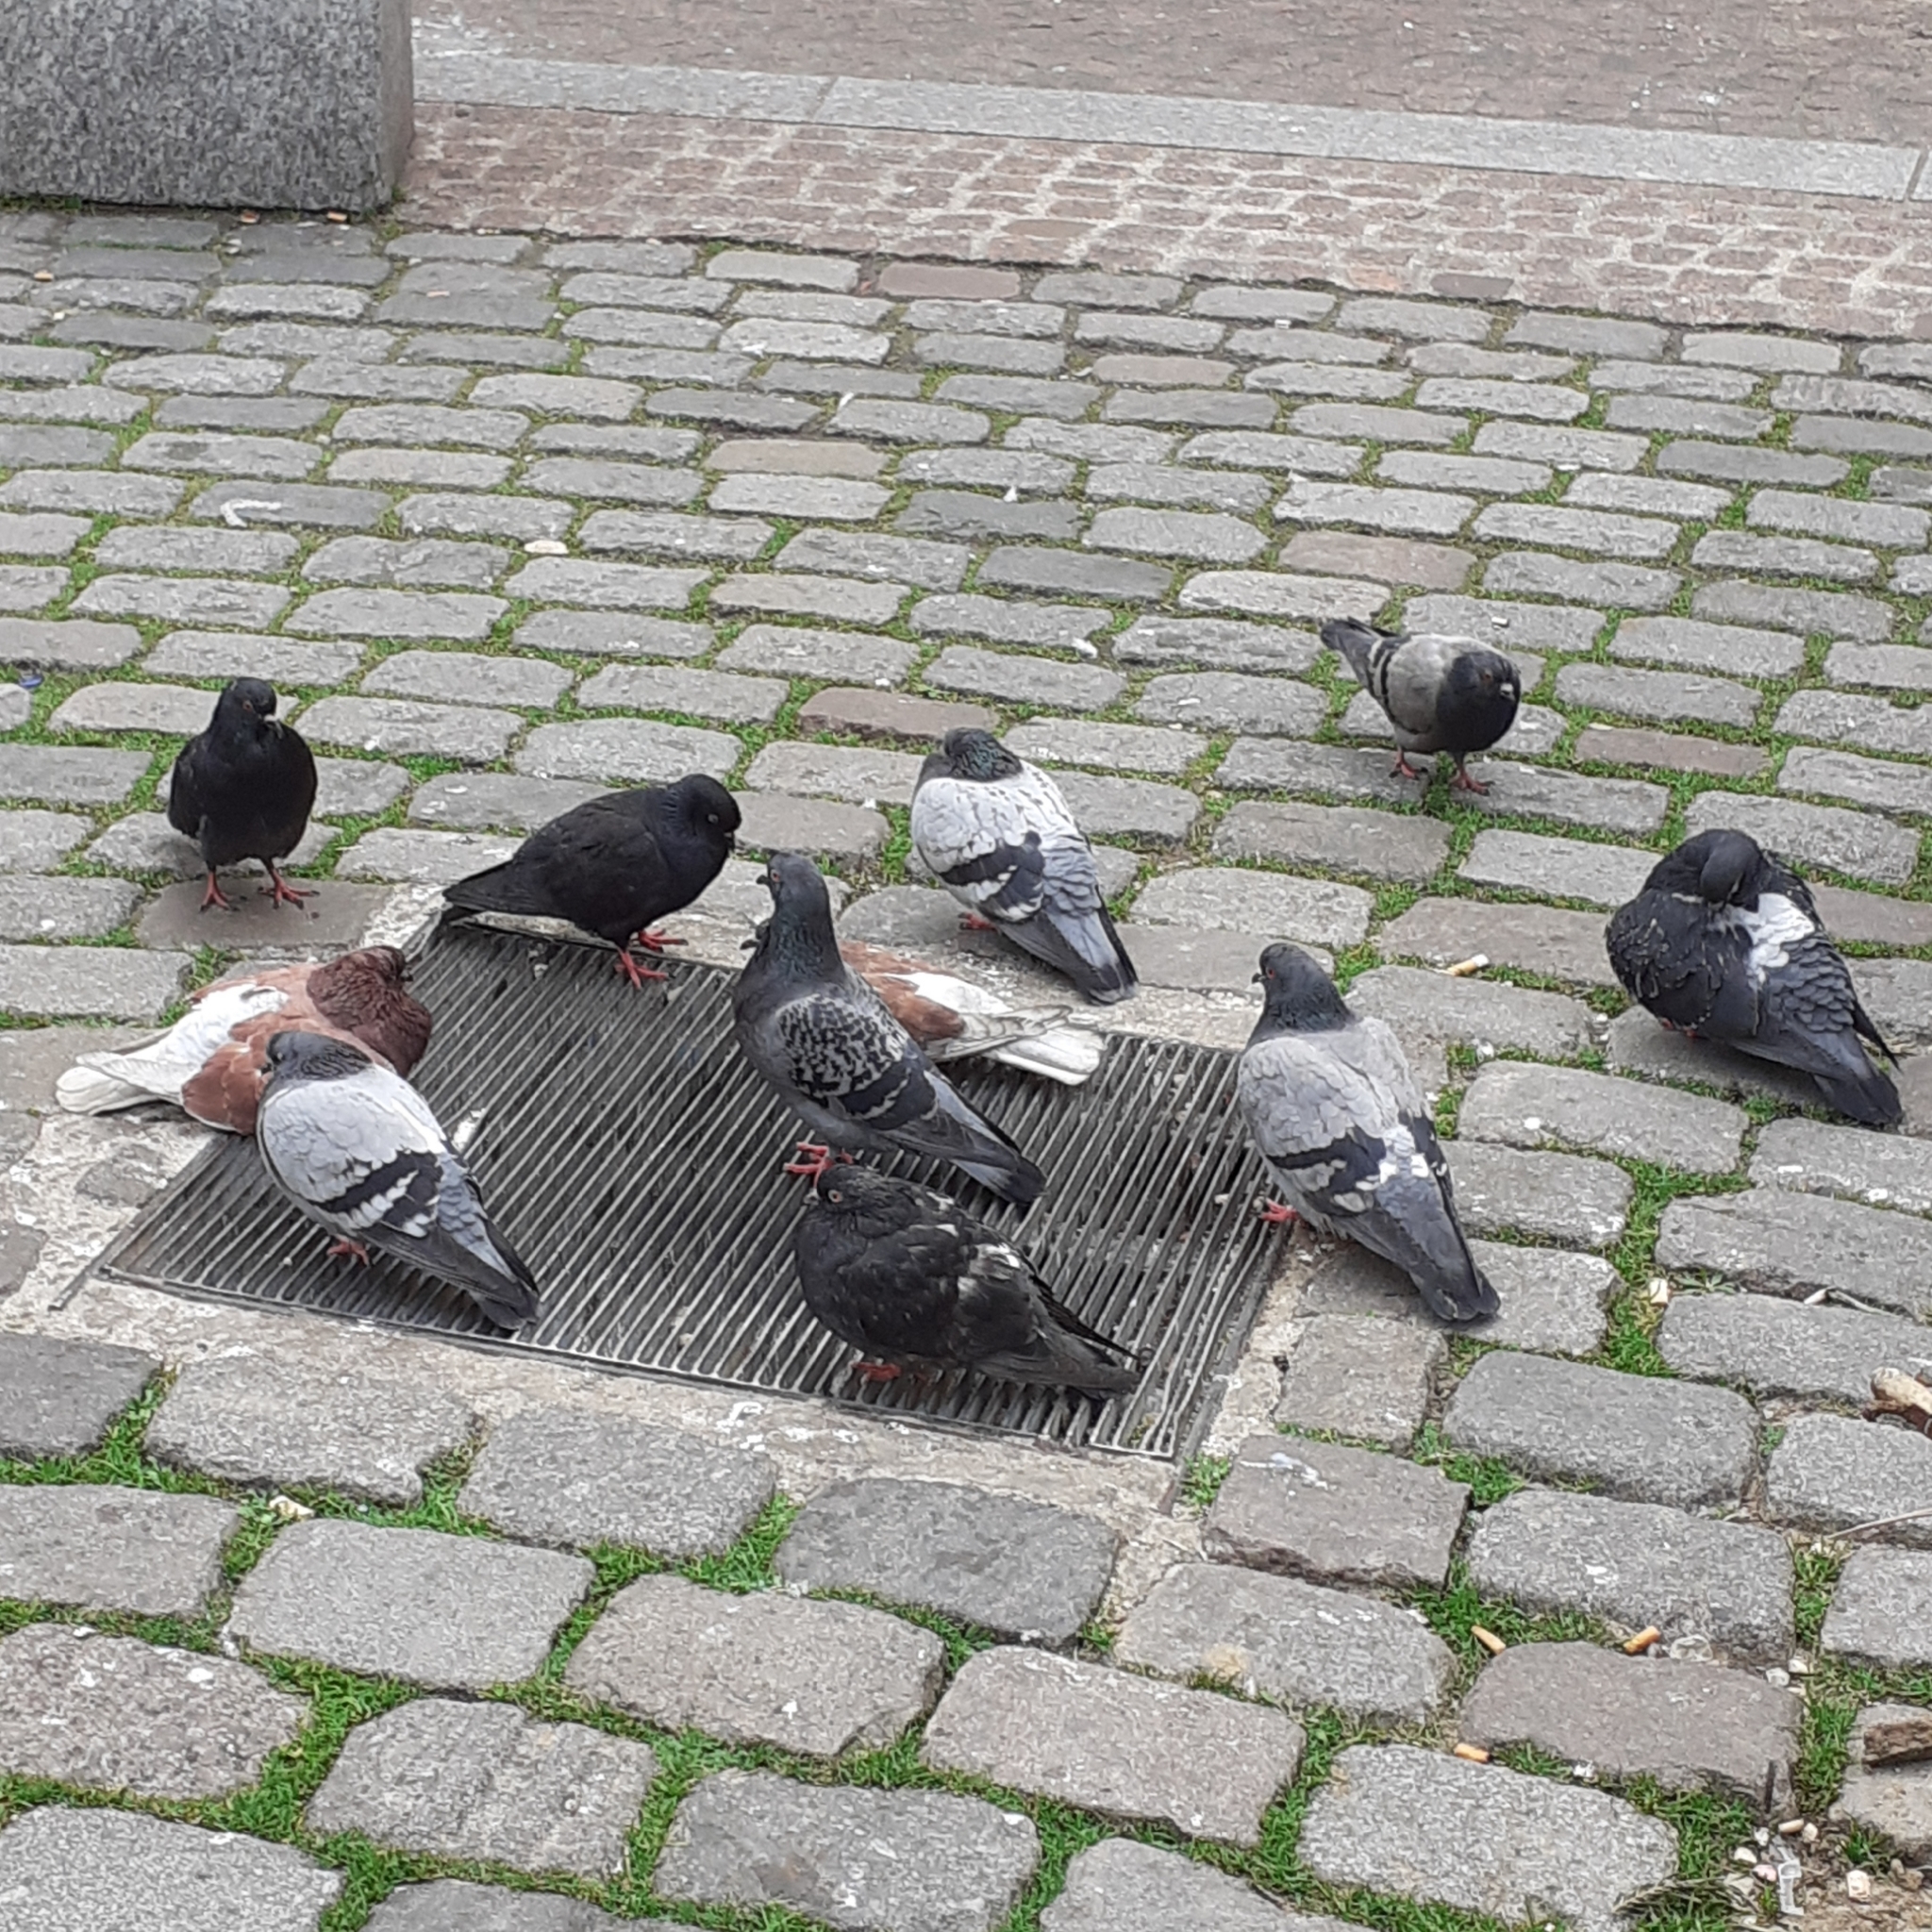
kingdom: Animalia
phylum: Chordata
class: Aves
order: Columbiformes
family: Columbidae
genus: Columba
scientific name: Columba livia
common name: Rock pigeon
